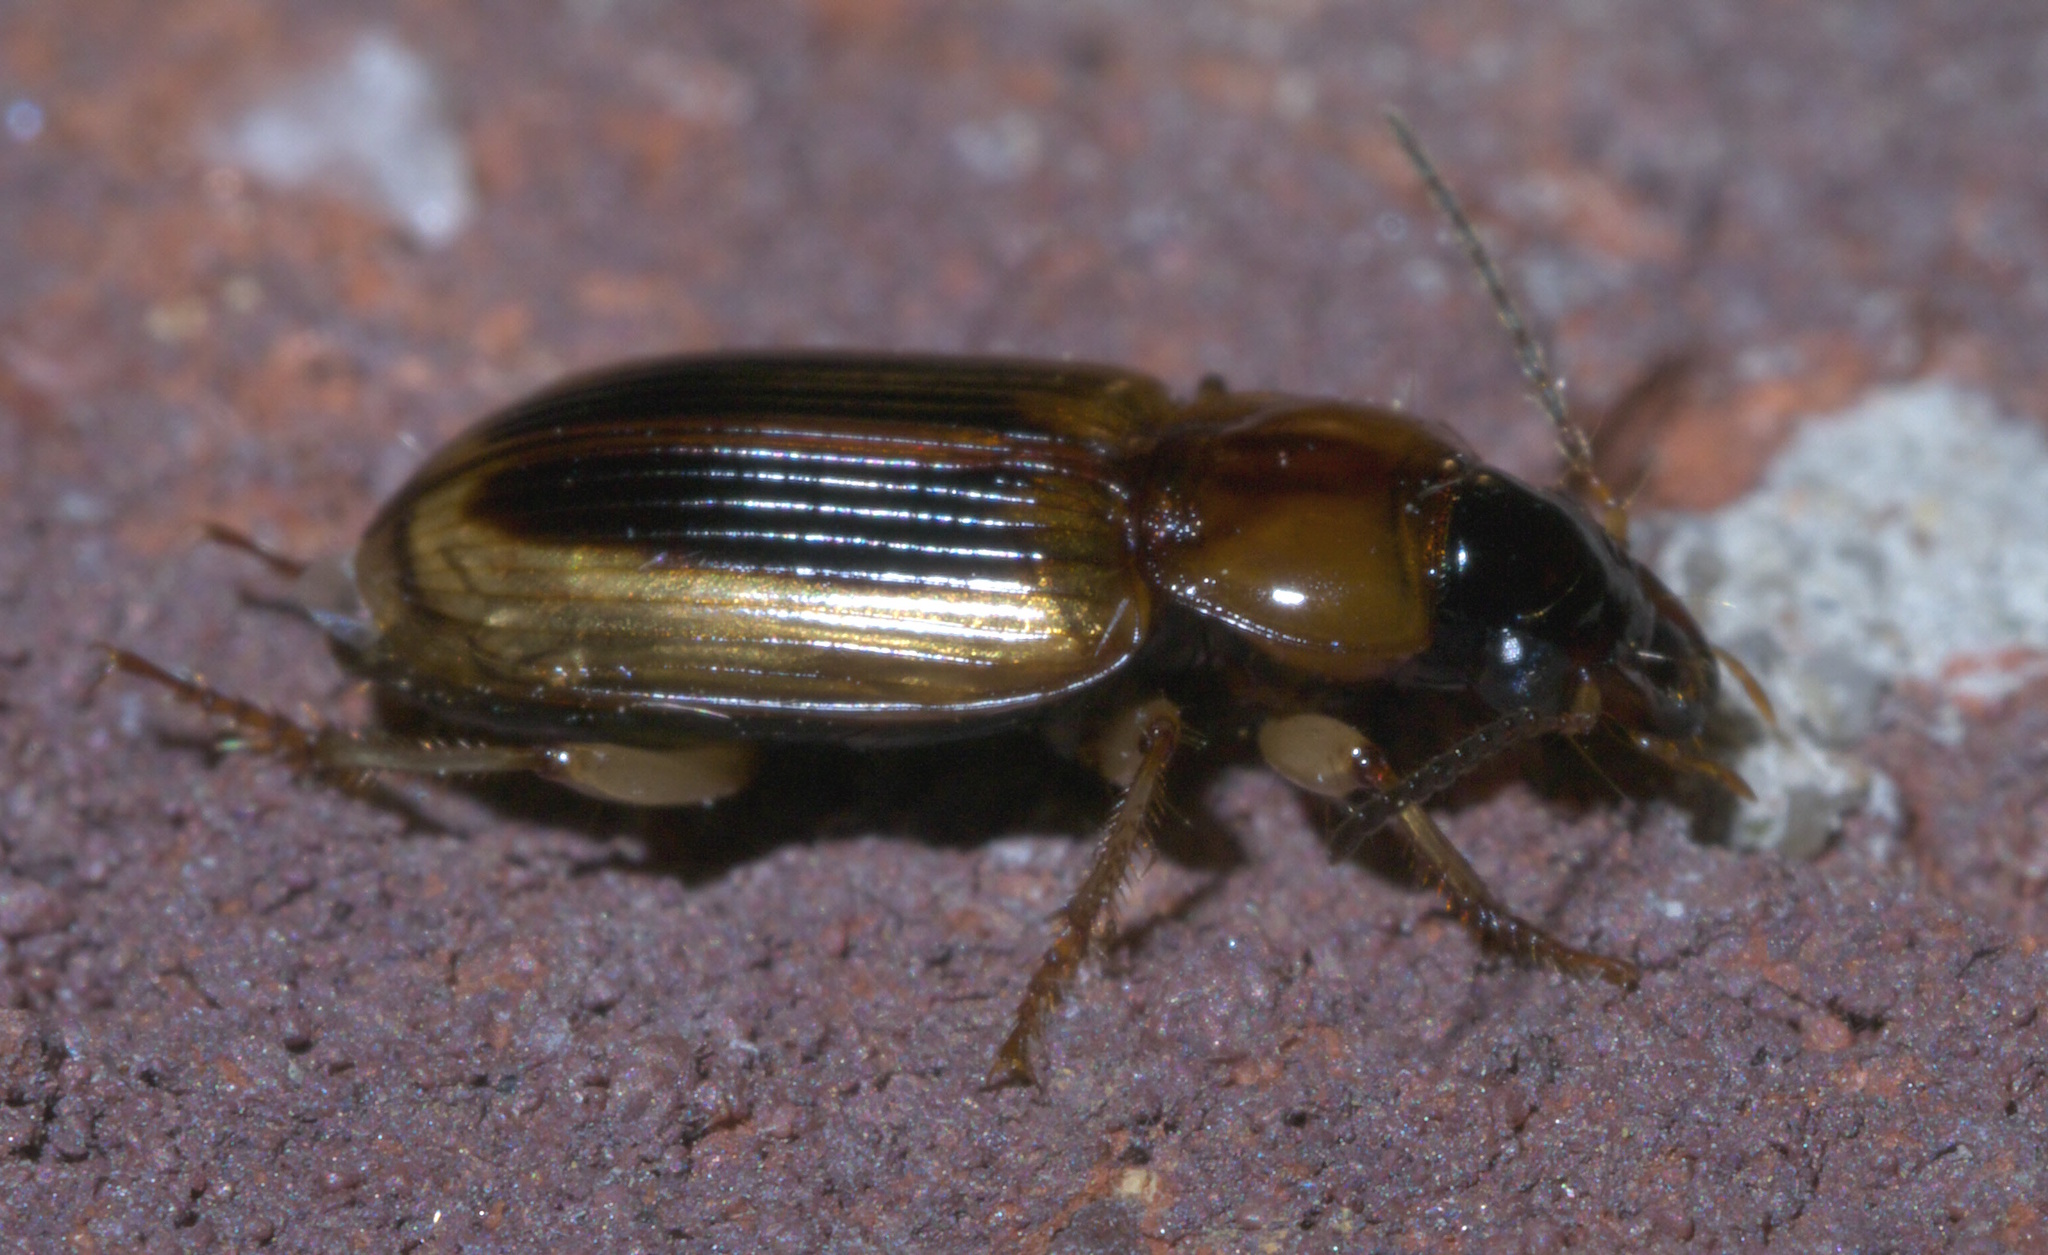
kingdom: Animalia
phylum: Arthropoda
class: Insecta
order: Coleoptera
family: Carabidae
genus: Stenolophus
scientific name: Stenolophus comma
